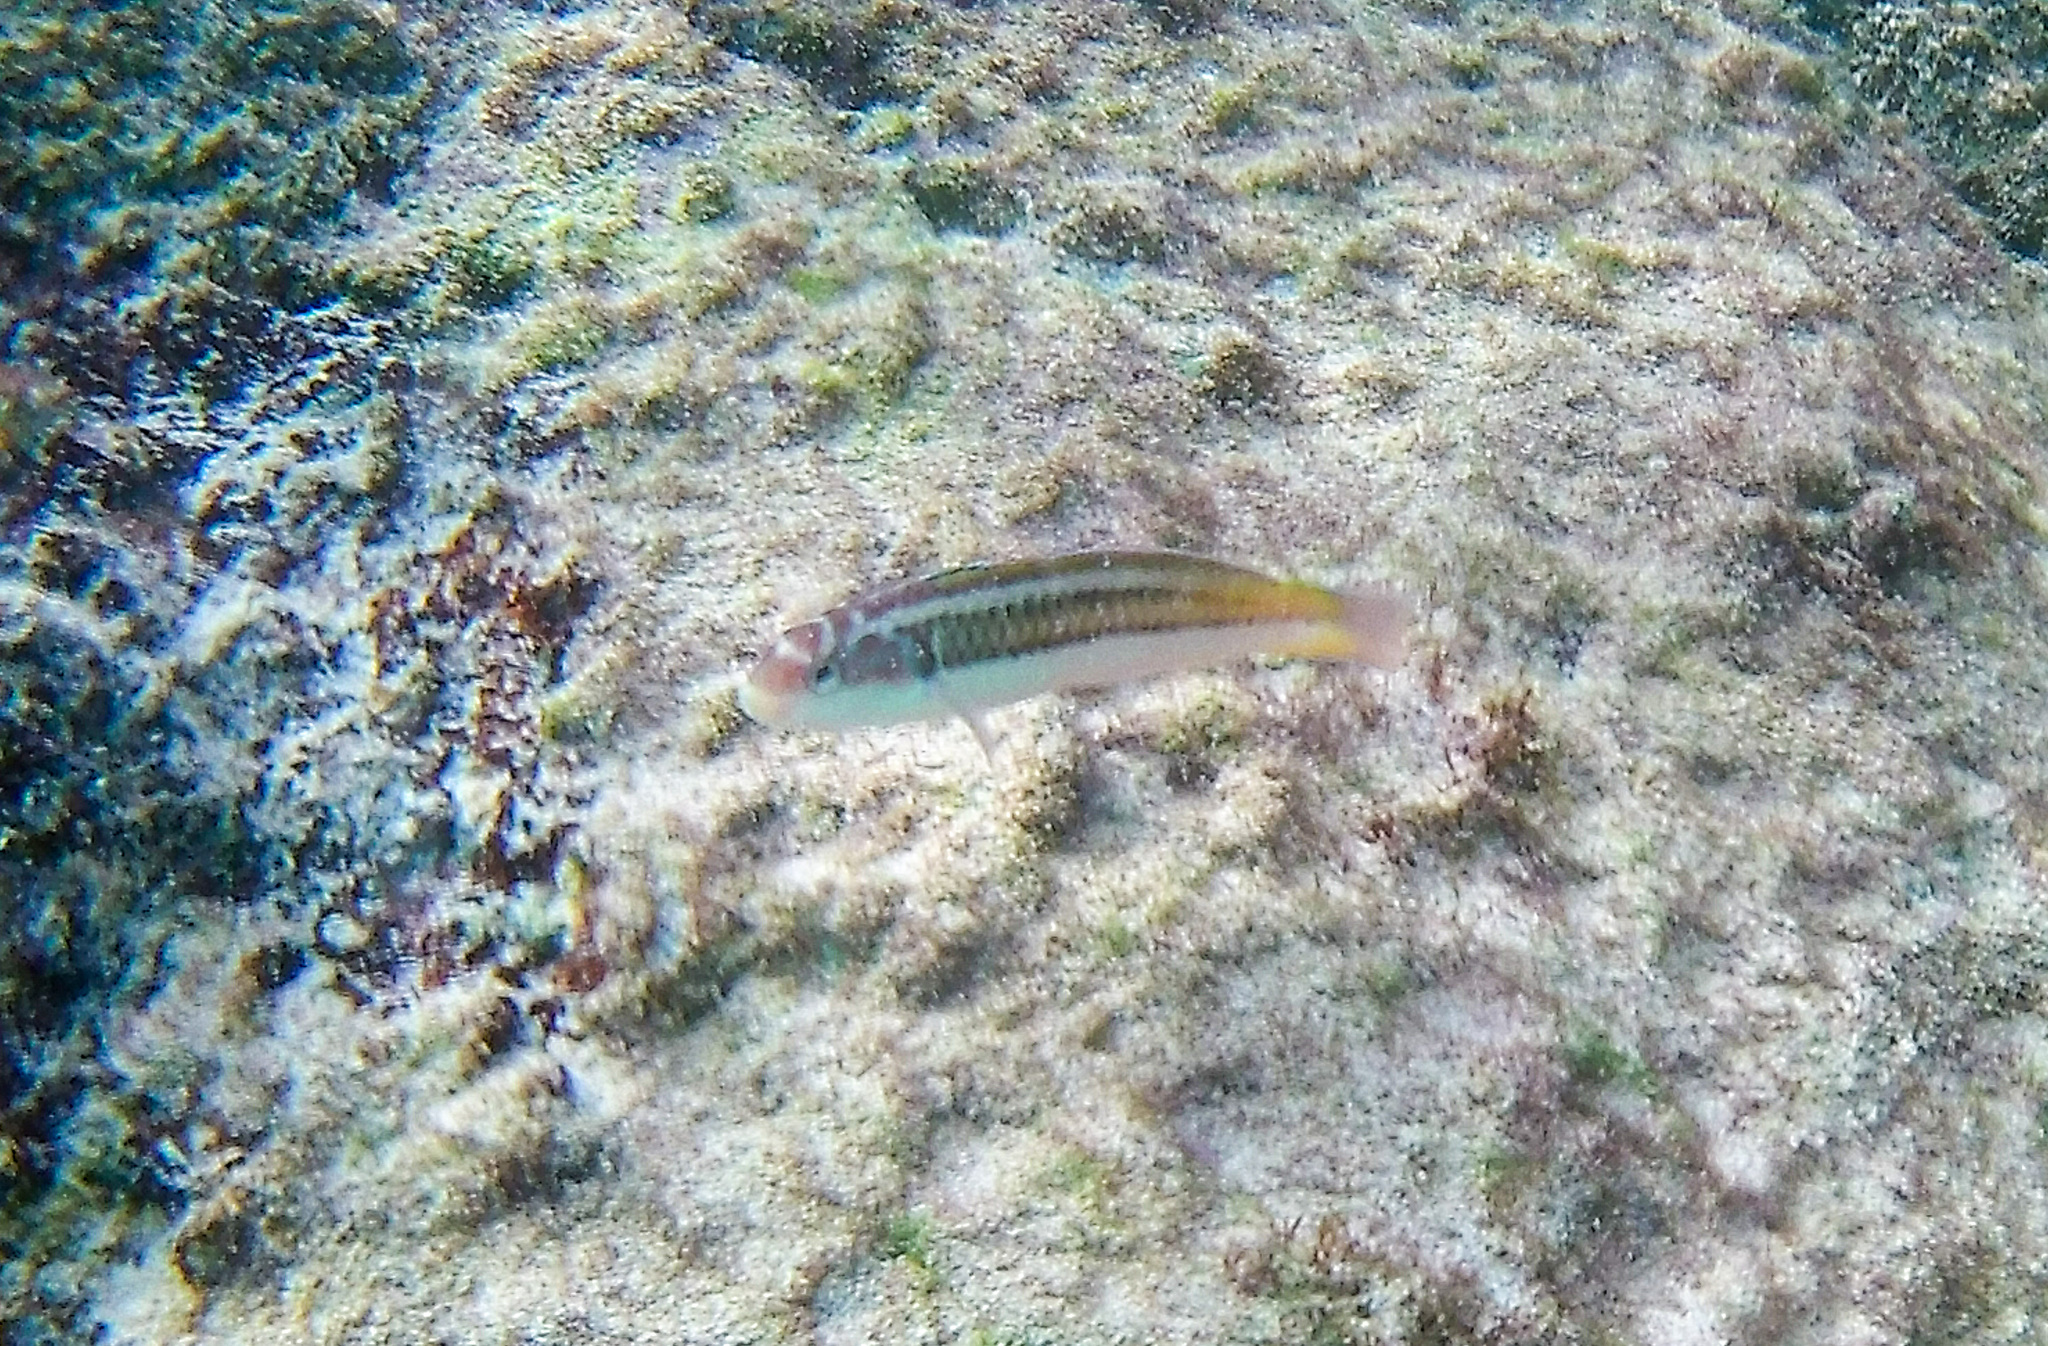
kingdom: Animalia
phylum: Chordata
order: Perciformes
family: Labridae
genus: Thalassoma
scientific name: Thalassoma noronhanum
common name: Noronha wrasse
